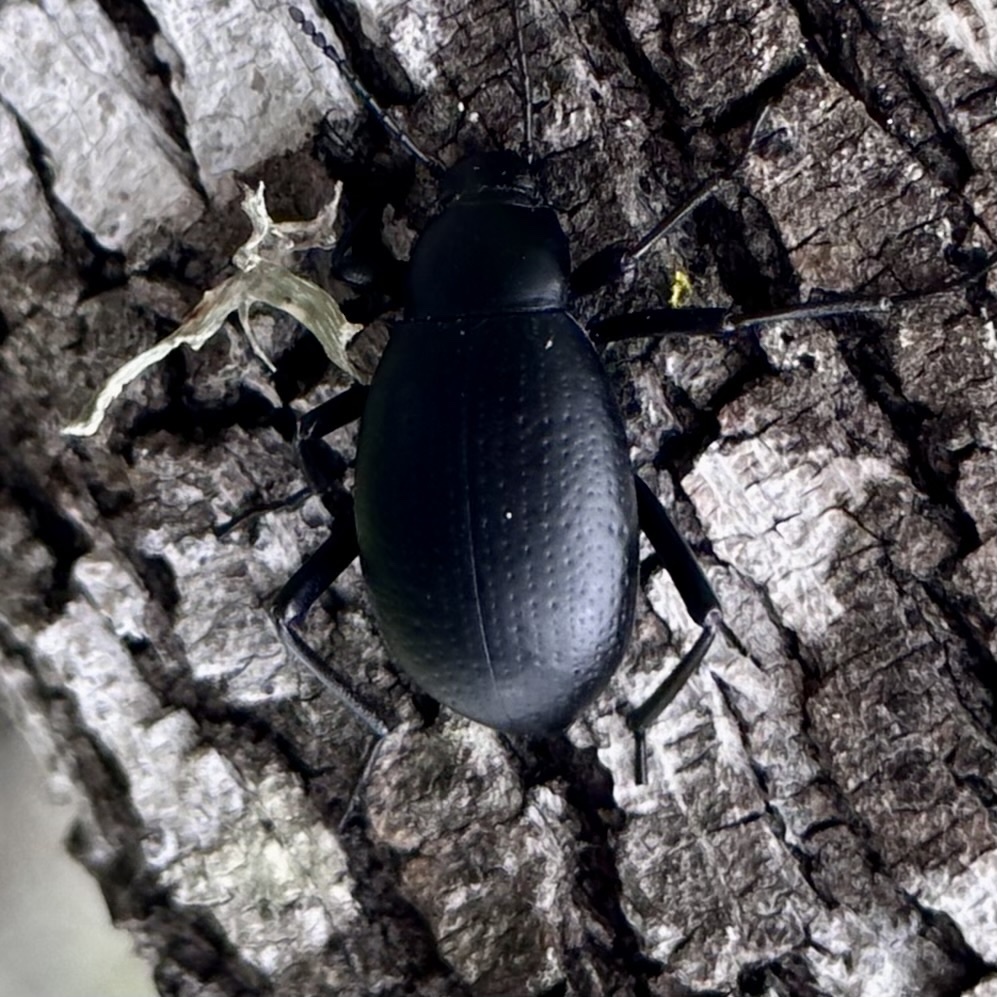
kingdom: Animalia
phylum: Arthropoda
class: Insecta
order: Coleoptera
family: Tenebrionidae
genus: Eleodes
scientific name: Eleodes goryi
